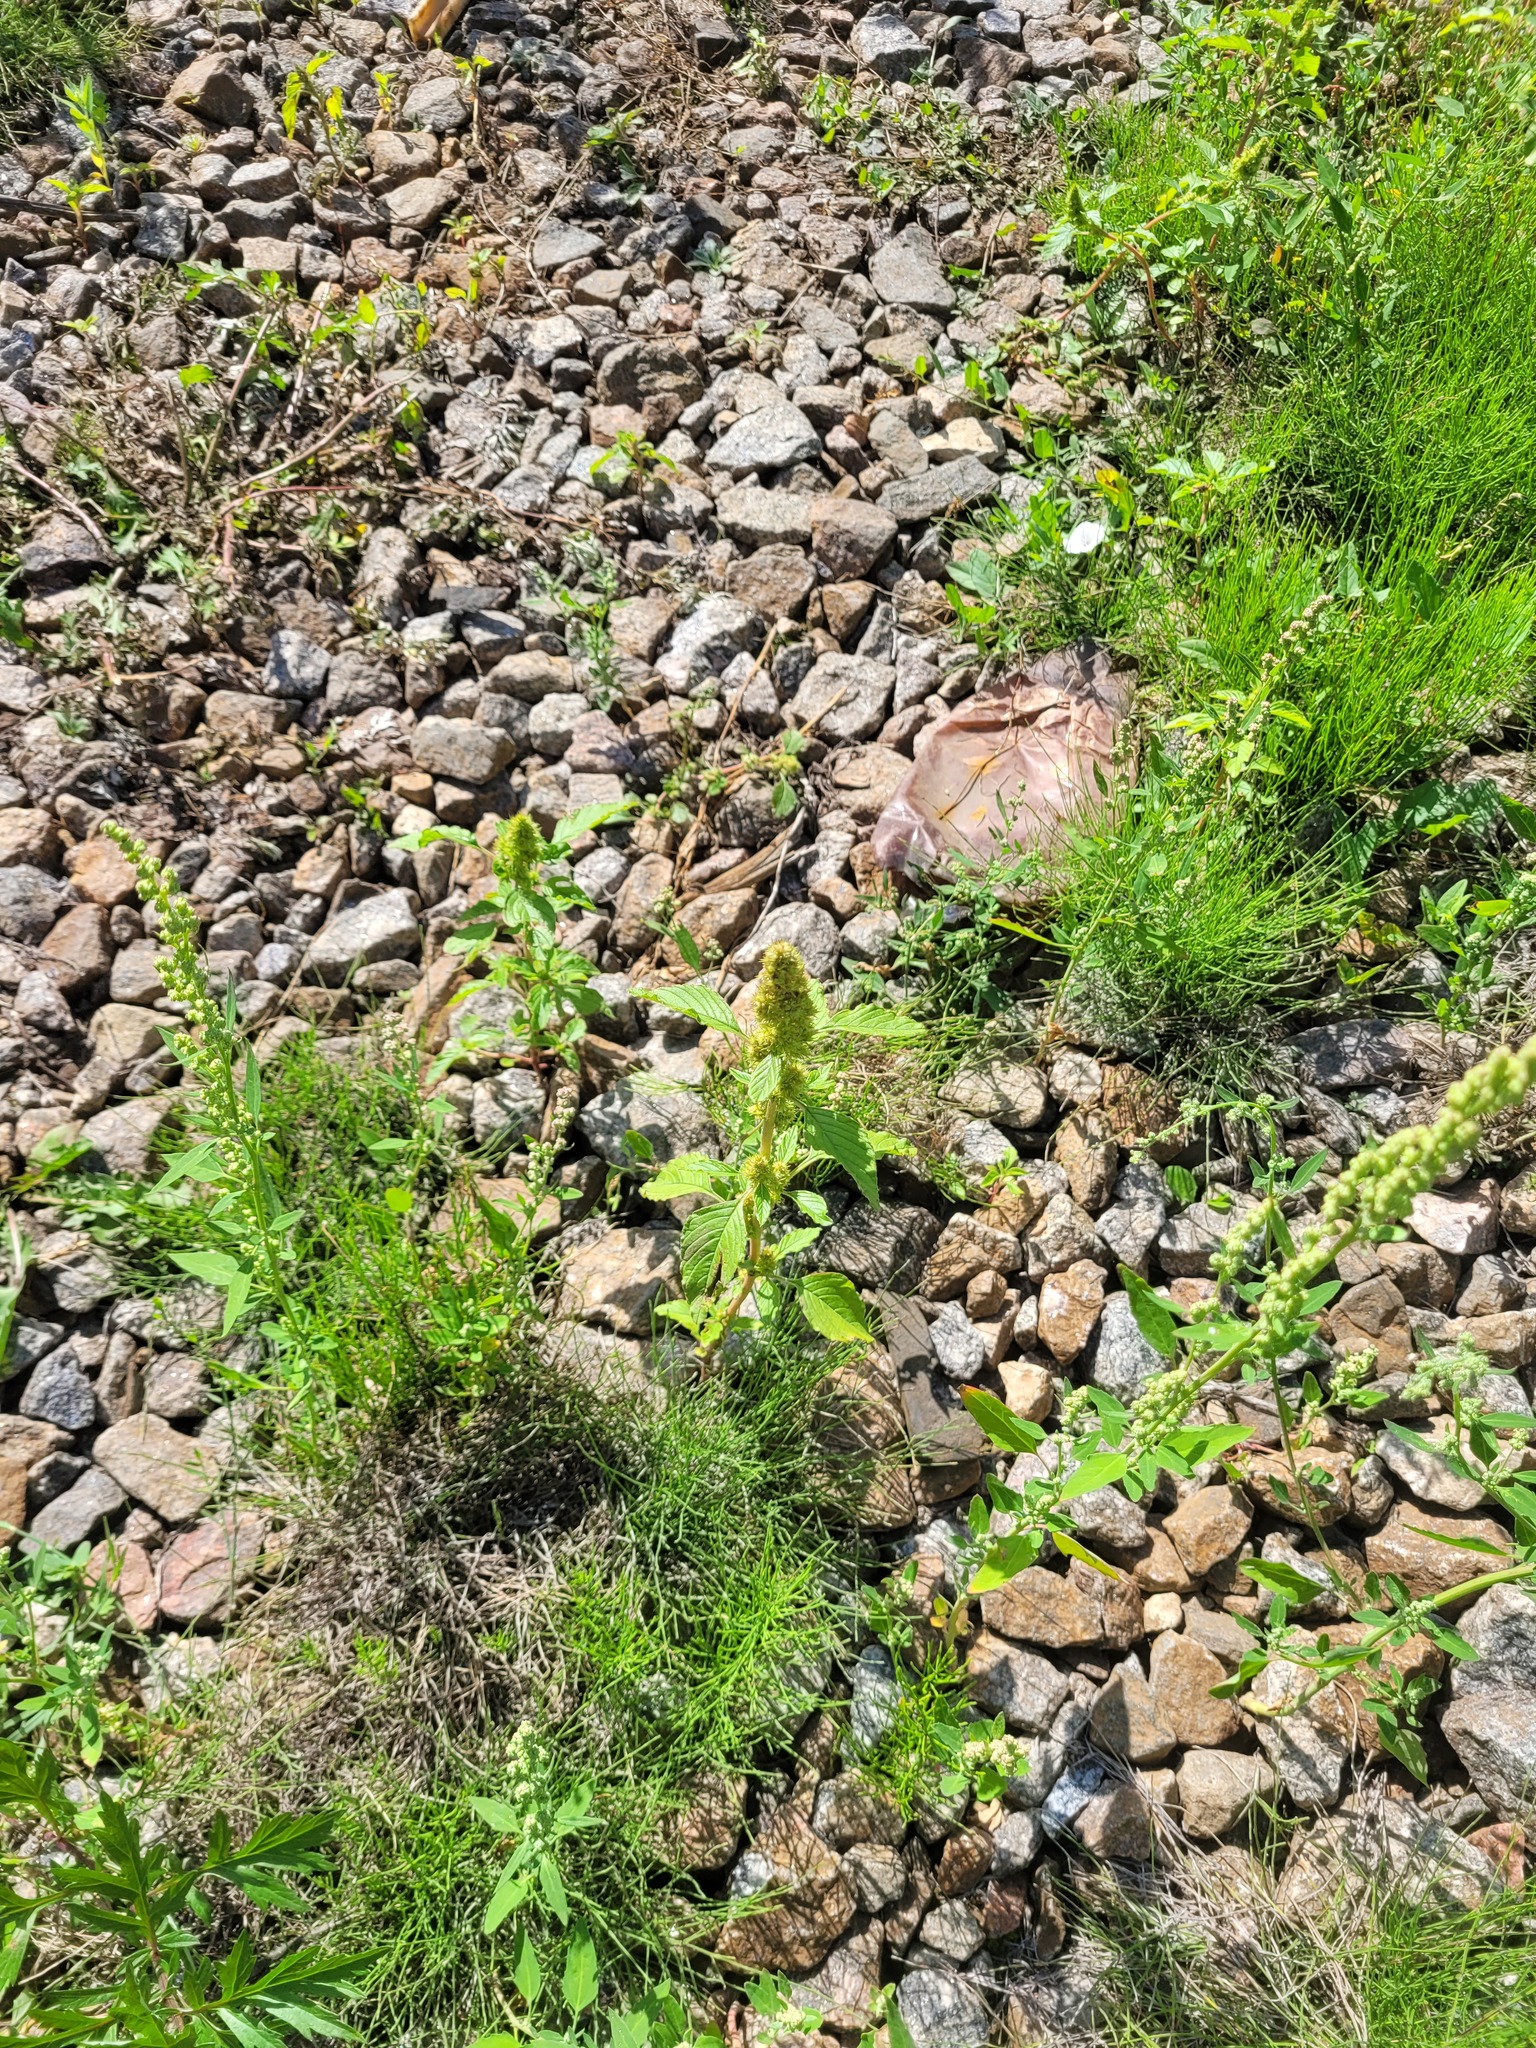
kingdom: Plantae
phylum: Tracheophyta
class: Magnoliopsida
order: Caryophyllales
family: Amaranthaceae
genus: Amaranthus
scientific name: Amaranthus retroflexus
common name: Redroot amaranth
